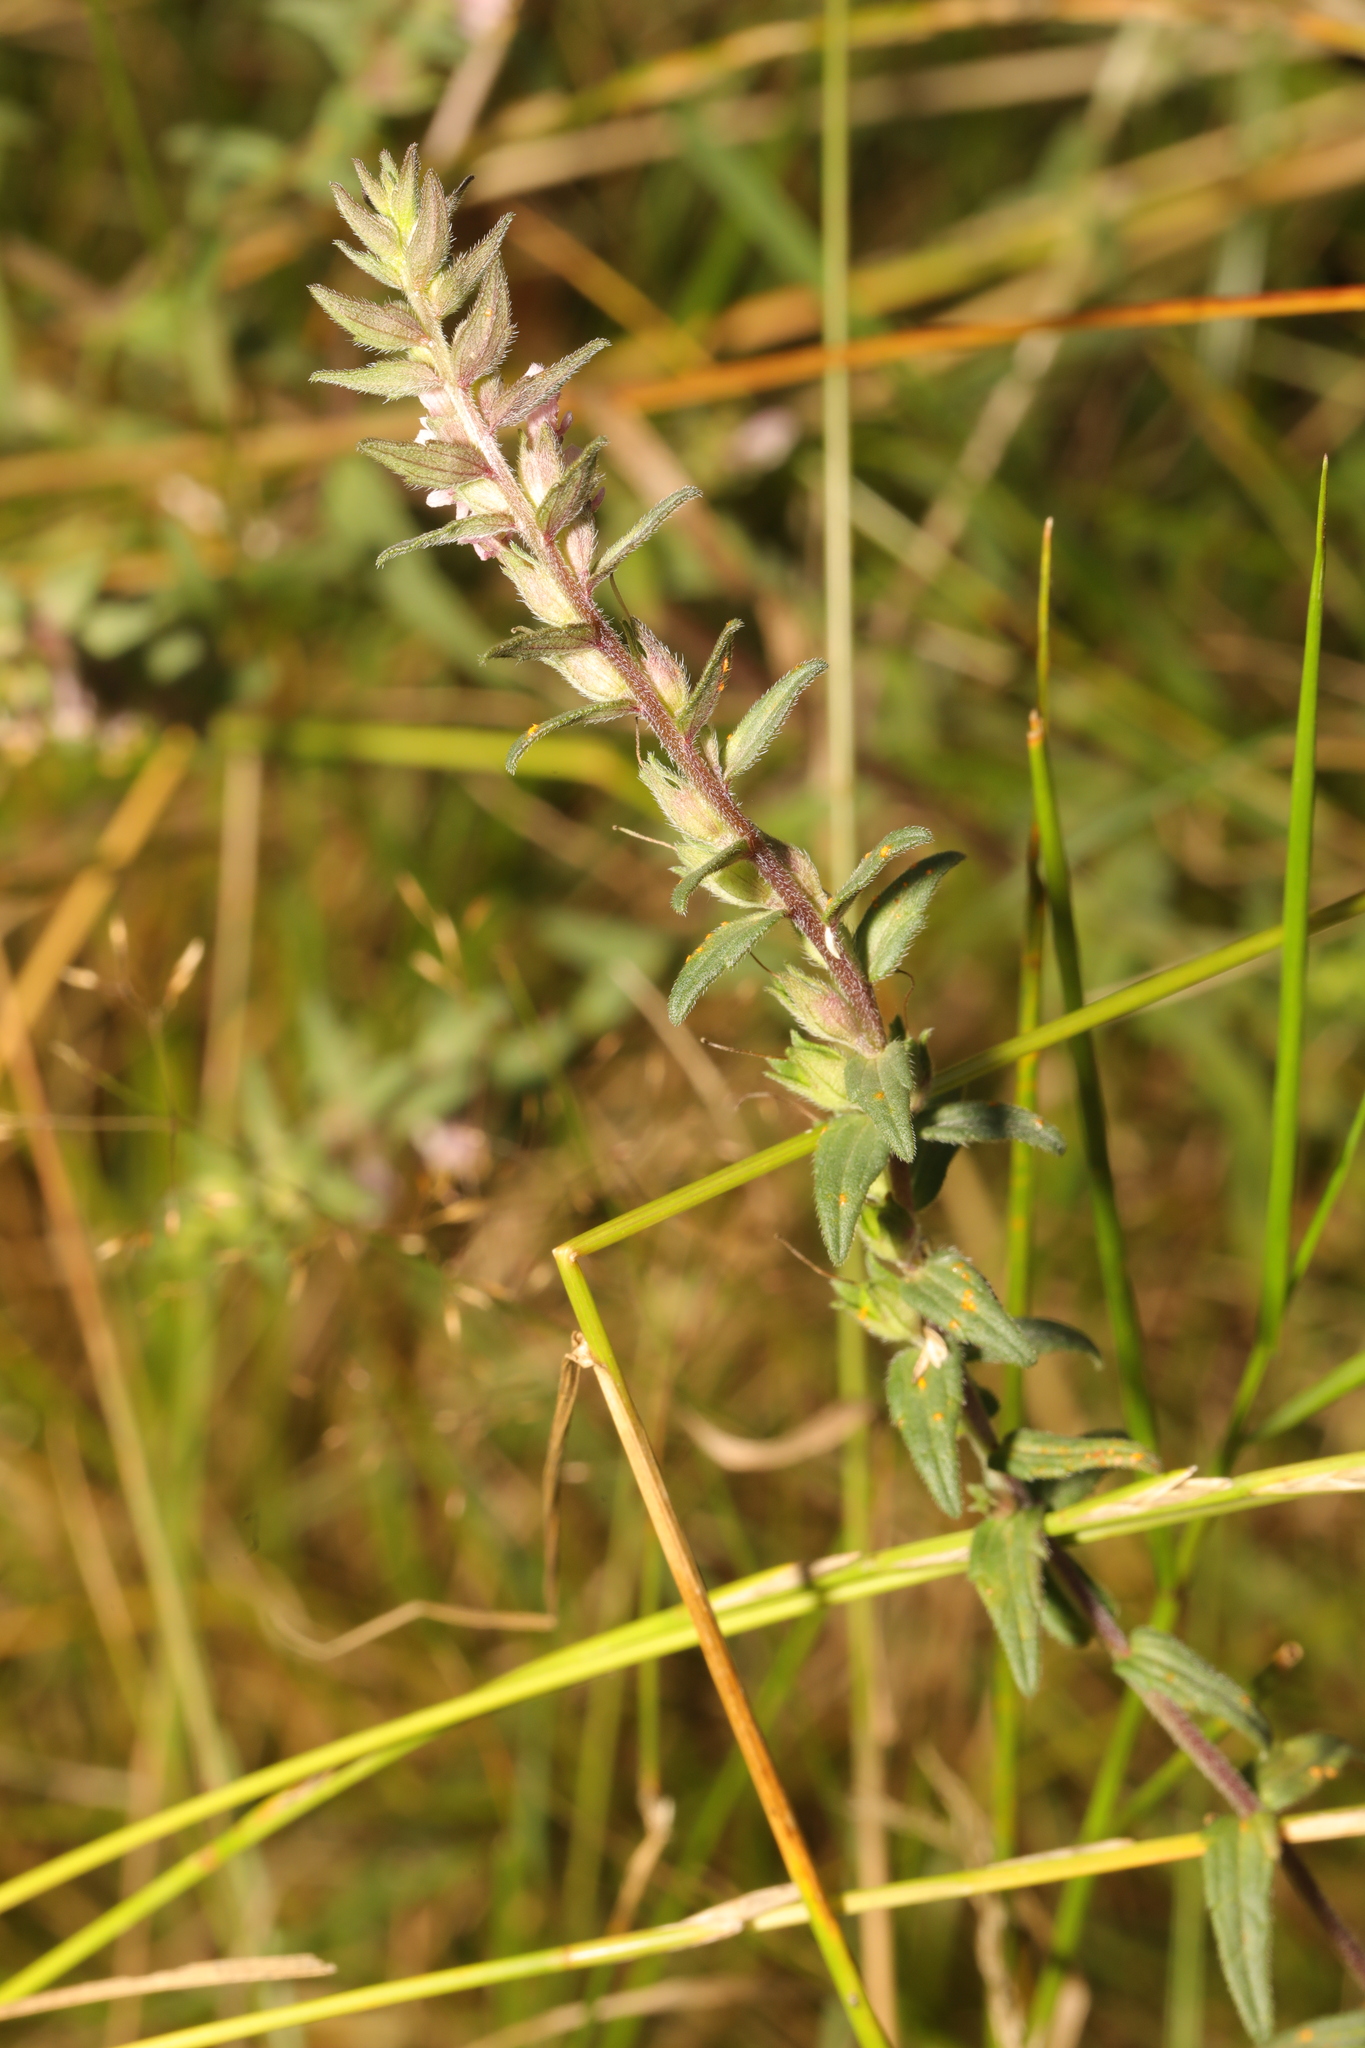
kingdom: Plantae
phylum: Tracheophyta
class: Magnoliopsida
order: Lamiales
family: Orobanchaceae
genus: Odontites
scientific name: Odontites vernus
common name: Red bartsia
